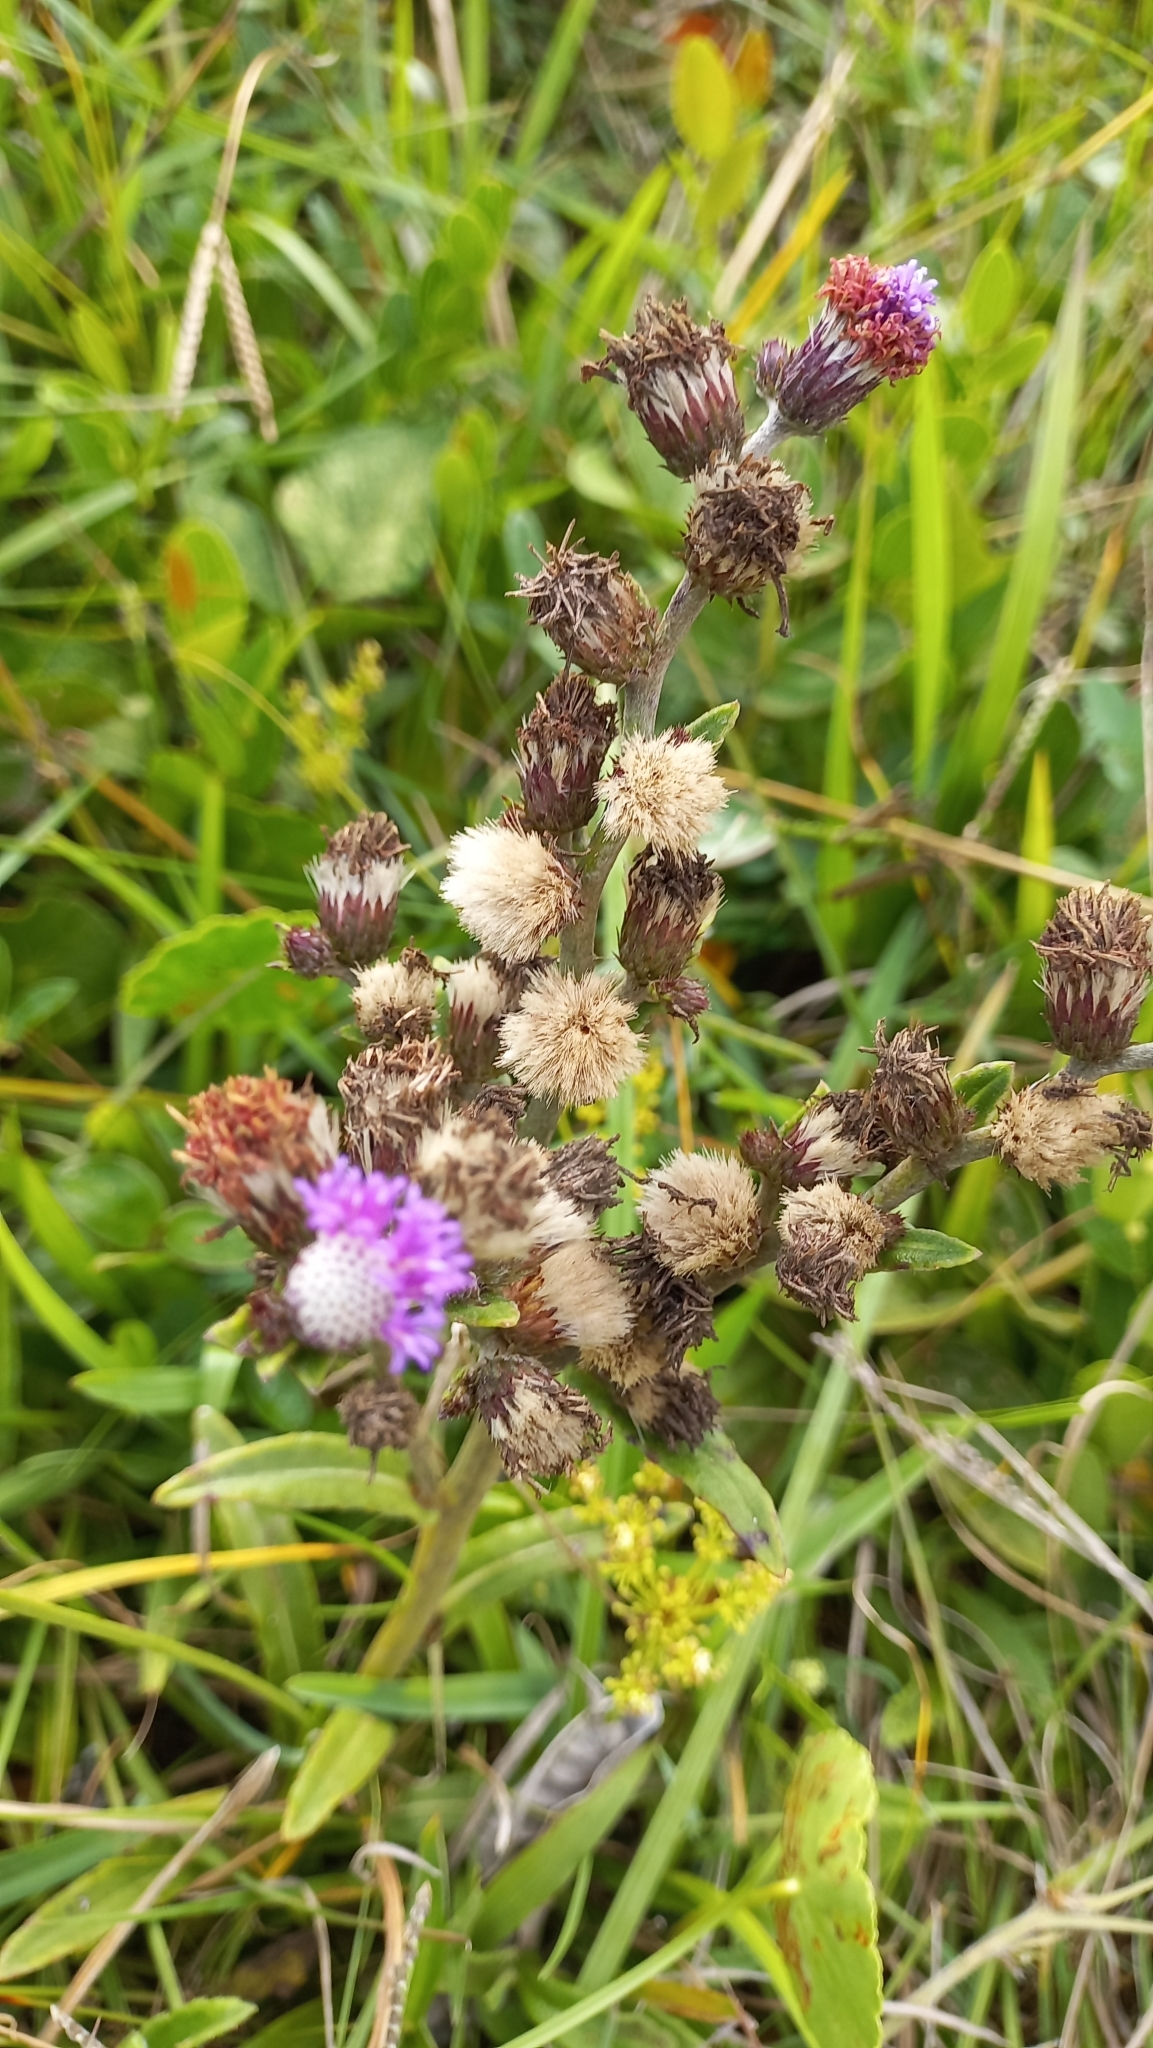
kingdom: Plantae
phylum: Tracheophyta
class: Magnoliopsida
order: Asterales
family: Asteraceae
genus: Chrysolaena
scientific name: Chrysolaena flexuosa
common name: Zig-zag vernonia
